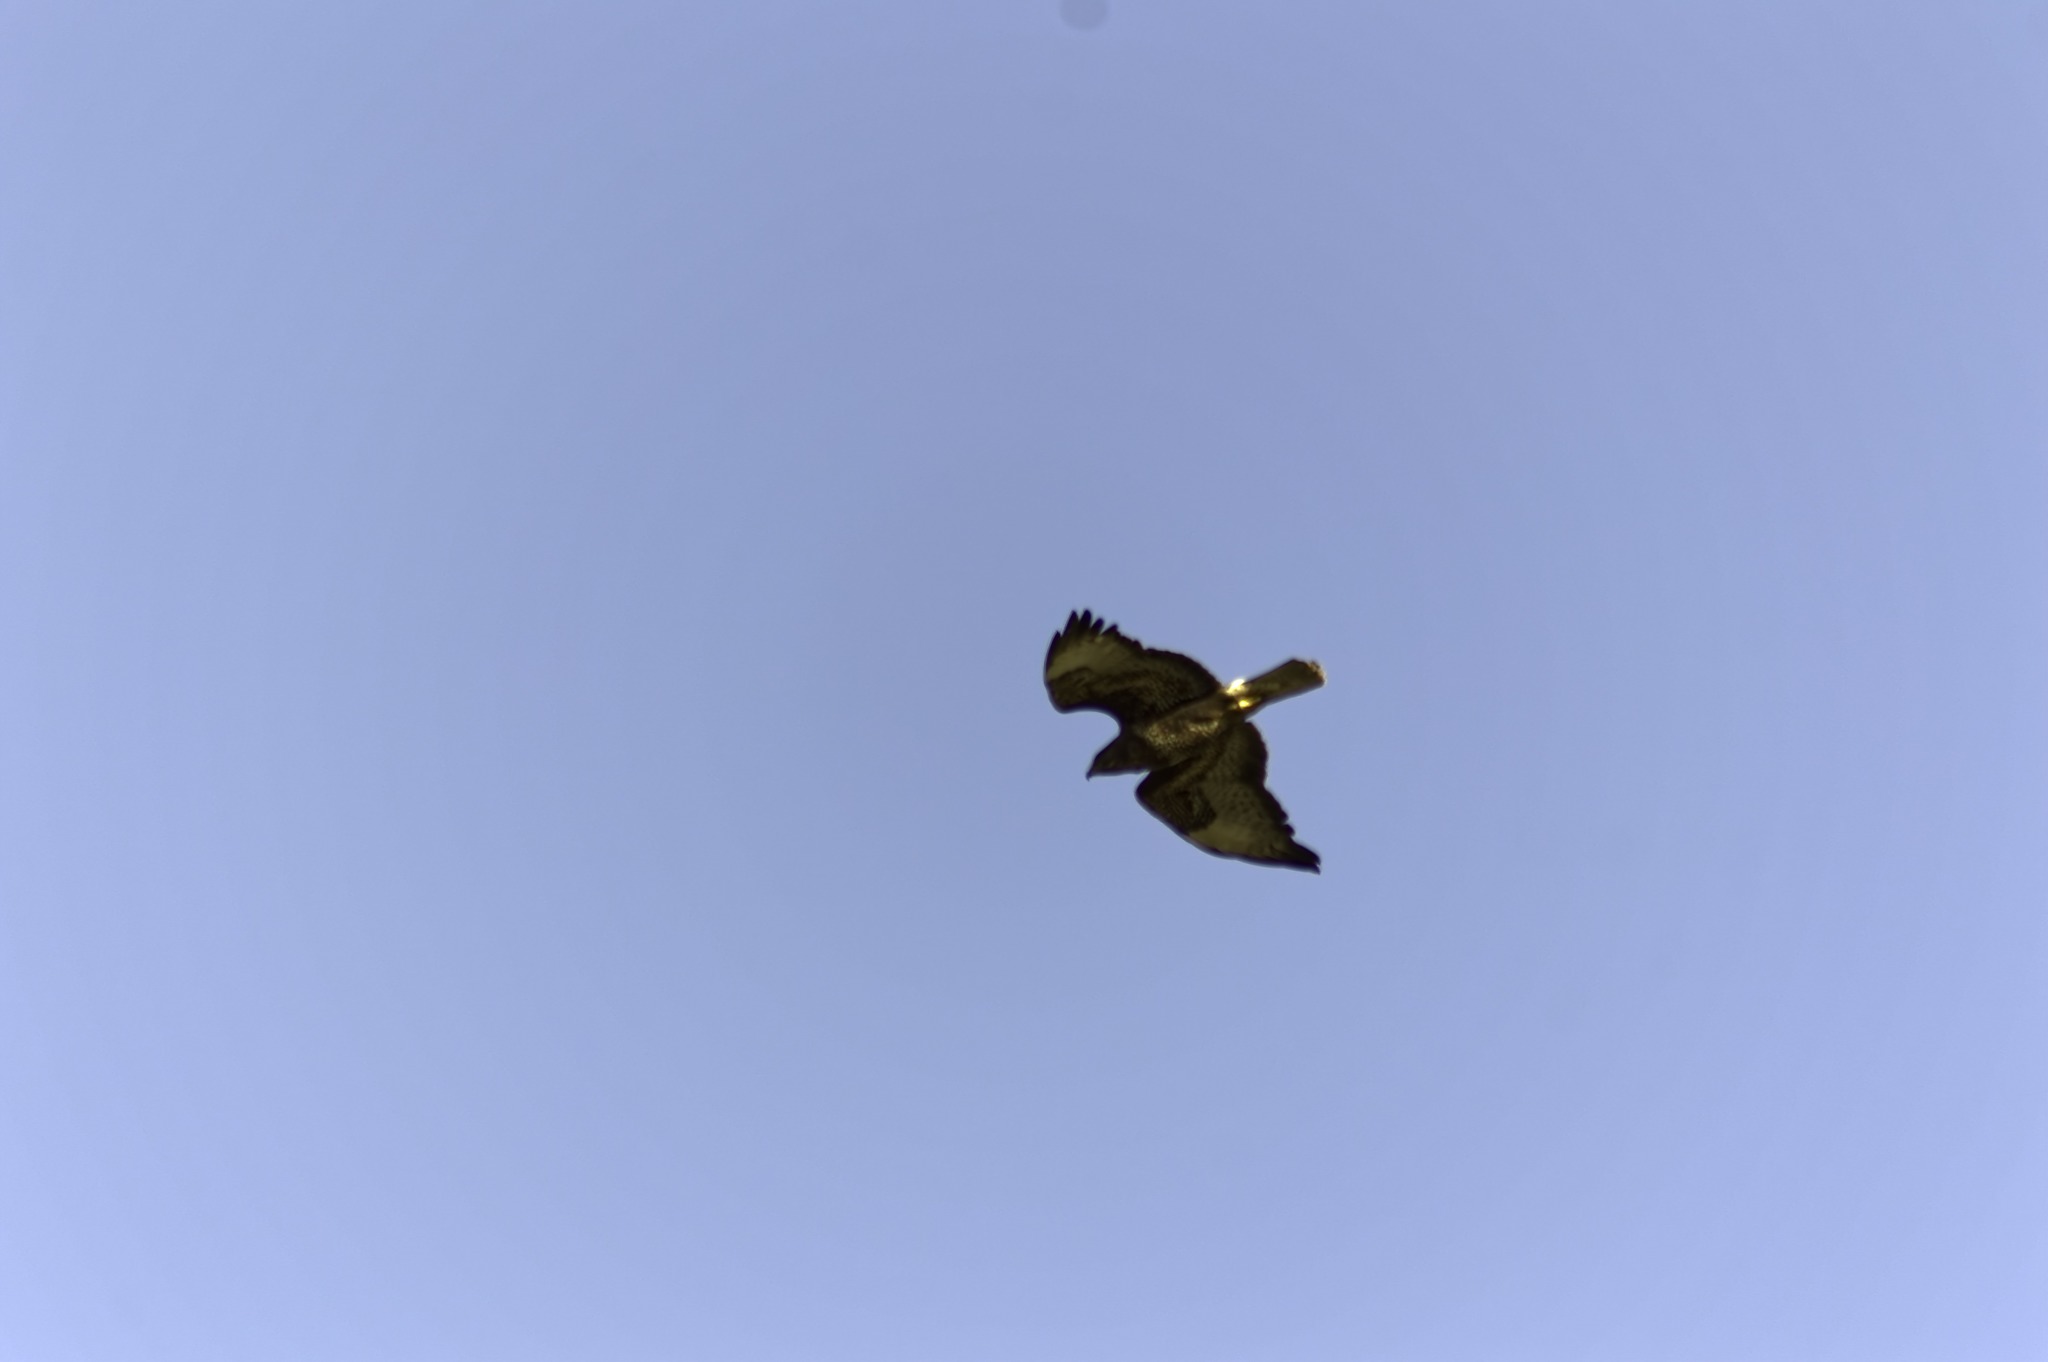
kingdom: Animalia
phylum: Chordata
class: Aves
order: Accipitriformes
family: Accipitridae
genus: Buteo
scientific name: Buteo buteo
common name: Common buzzard
